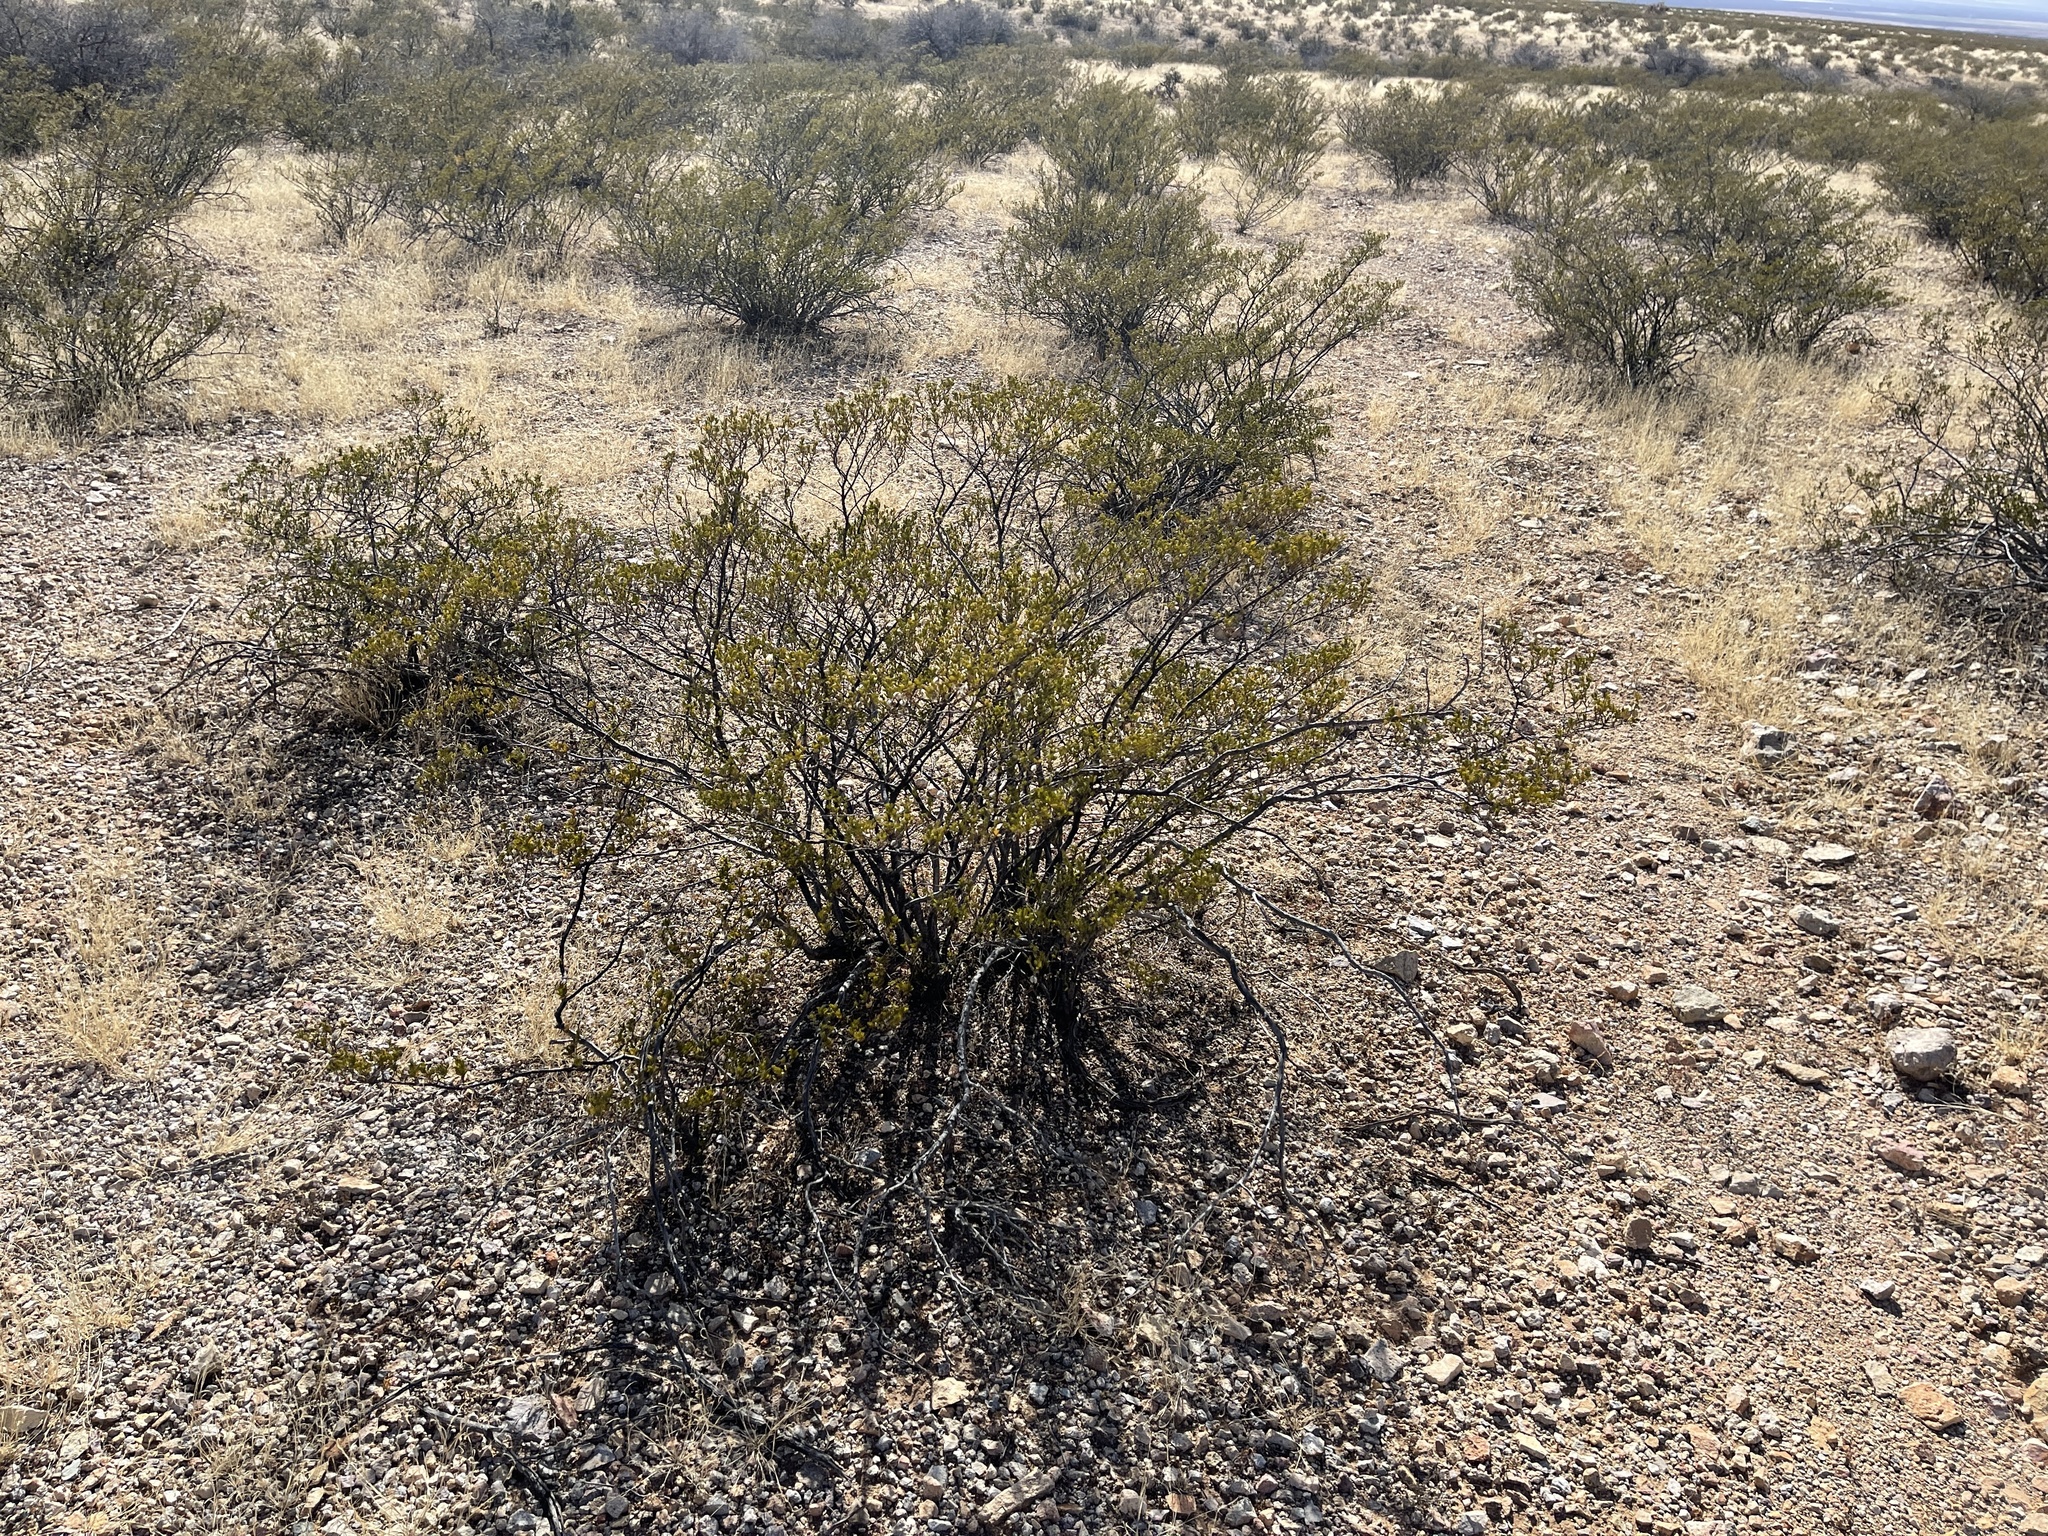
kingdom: Plantae
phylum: Tracheophyta
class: Magnoliopsida
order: Zygophyllales
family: Zygophyllaceae
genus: Larrea
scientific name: Larrea tridentata
